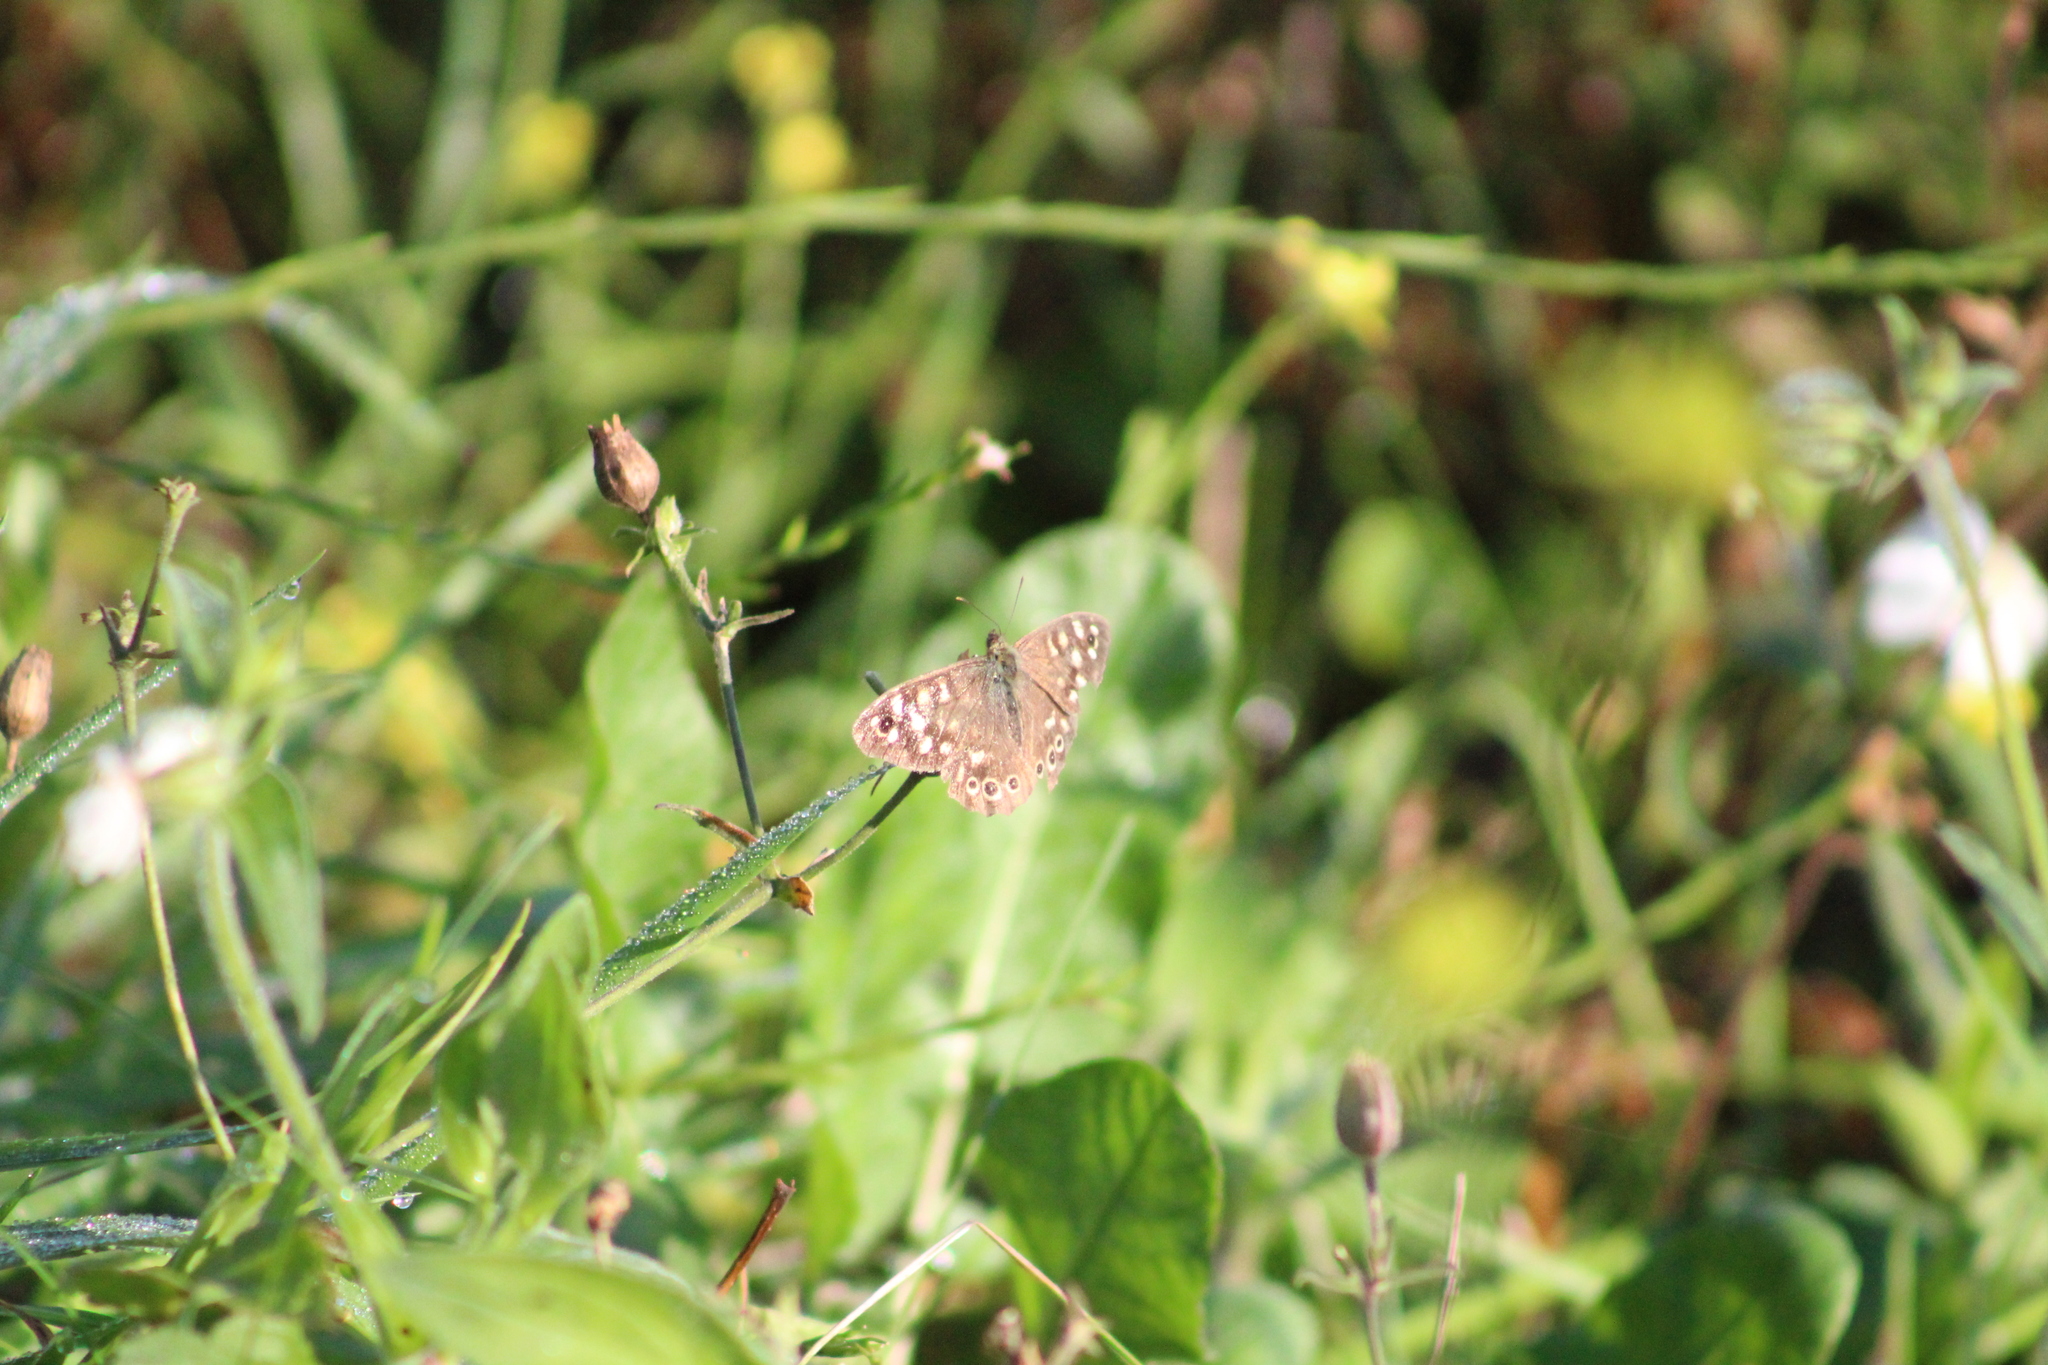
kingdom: Animalia
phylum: Arthropoda
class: Insecta
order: Lepidoptera
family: Nymphalidae
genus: Pararge
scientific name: Pararge aegeria
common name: Speckled wood
